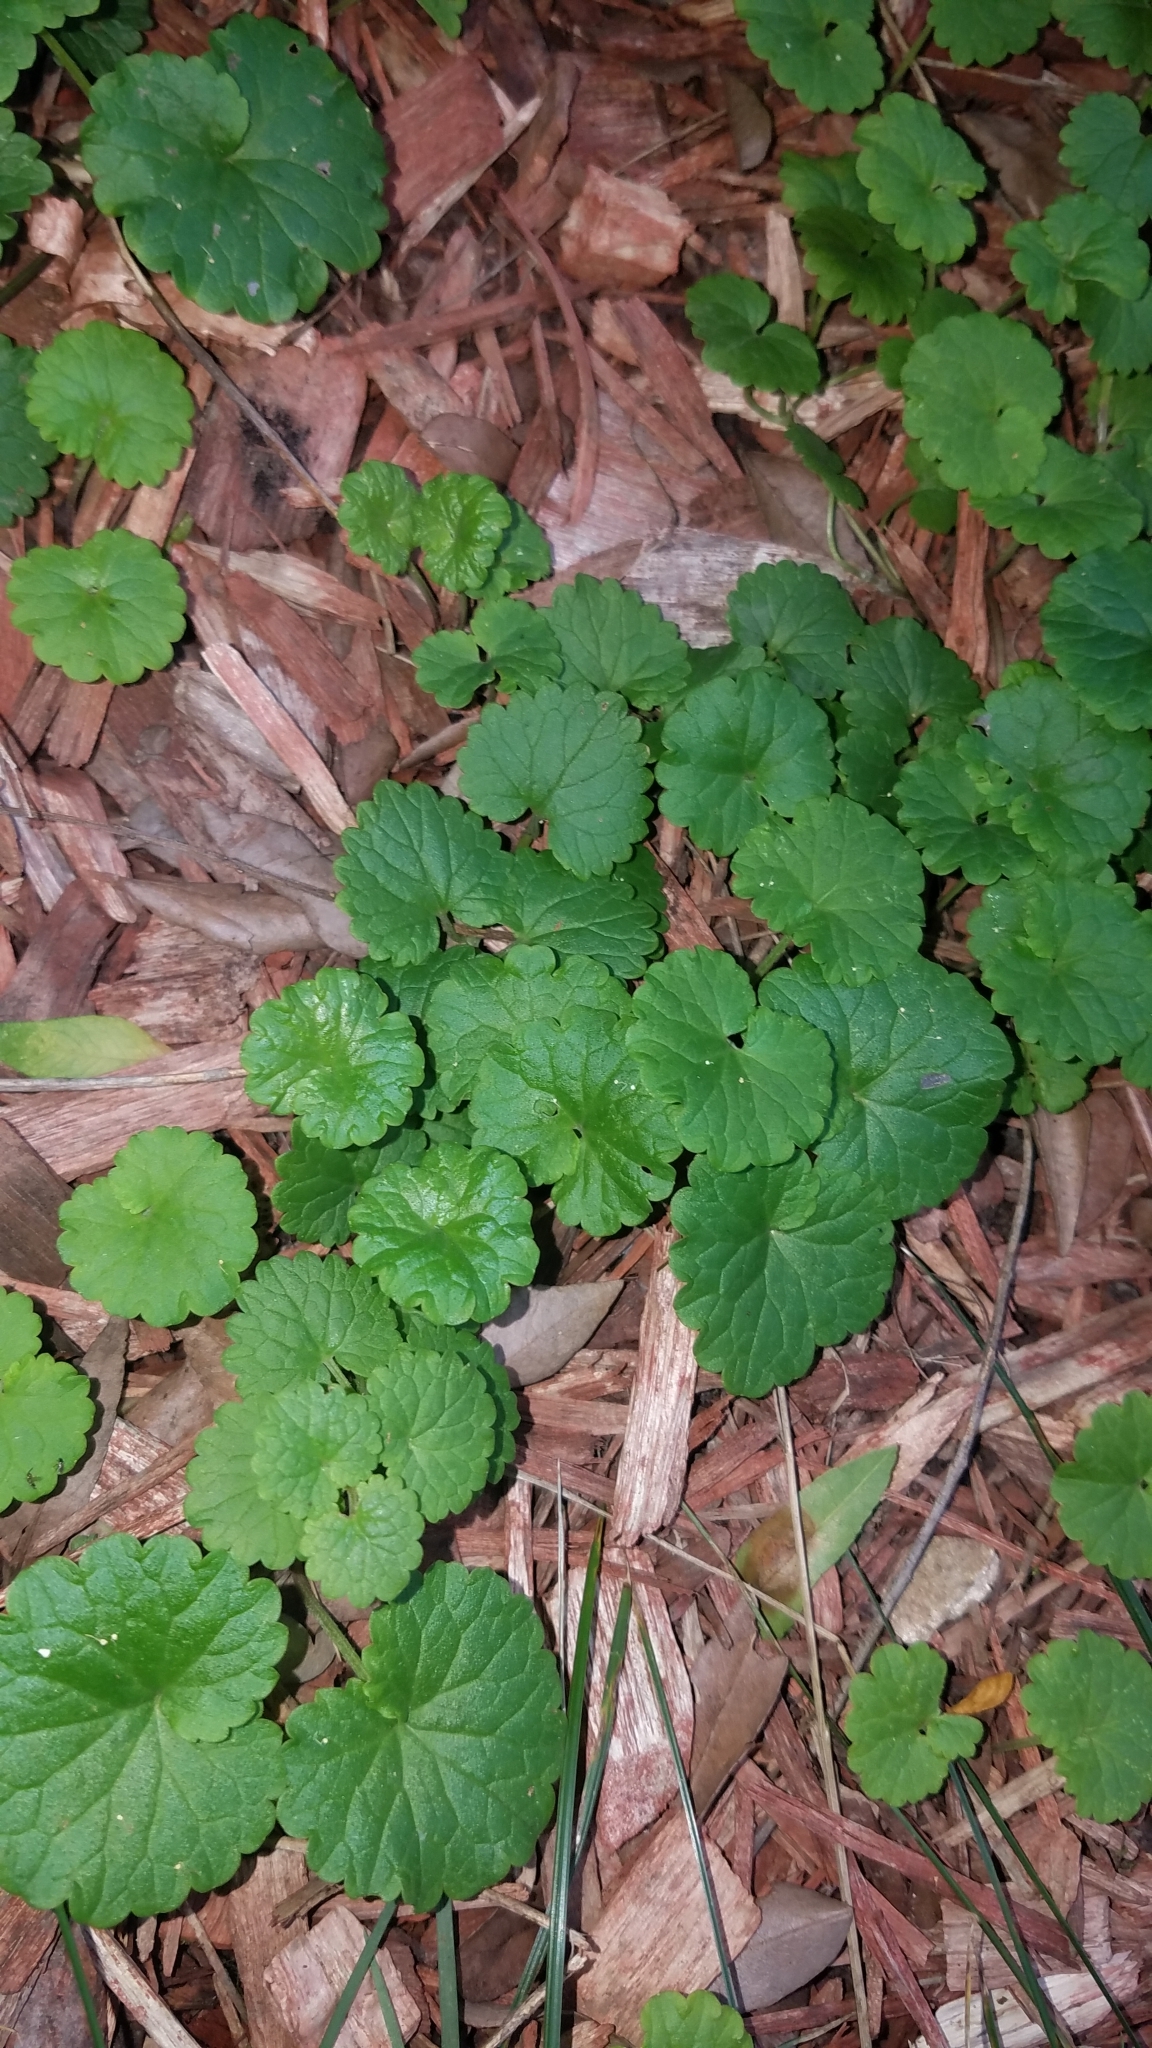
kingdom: Plantae
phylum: Tracheophyta
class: Magnoliopsida
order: Lamiales
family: Lamiaceae
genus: Glechoma
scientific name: Glechoma hederacea
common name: Ground ivy
